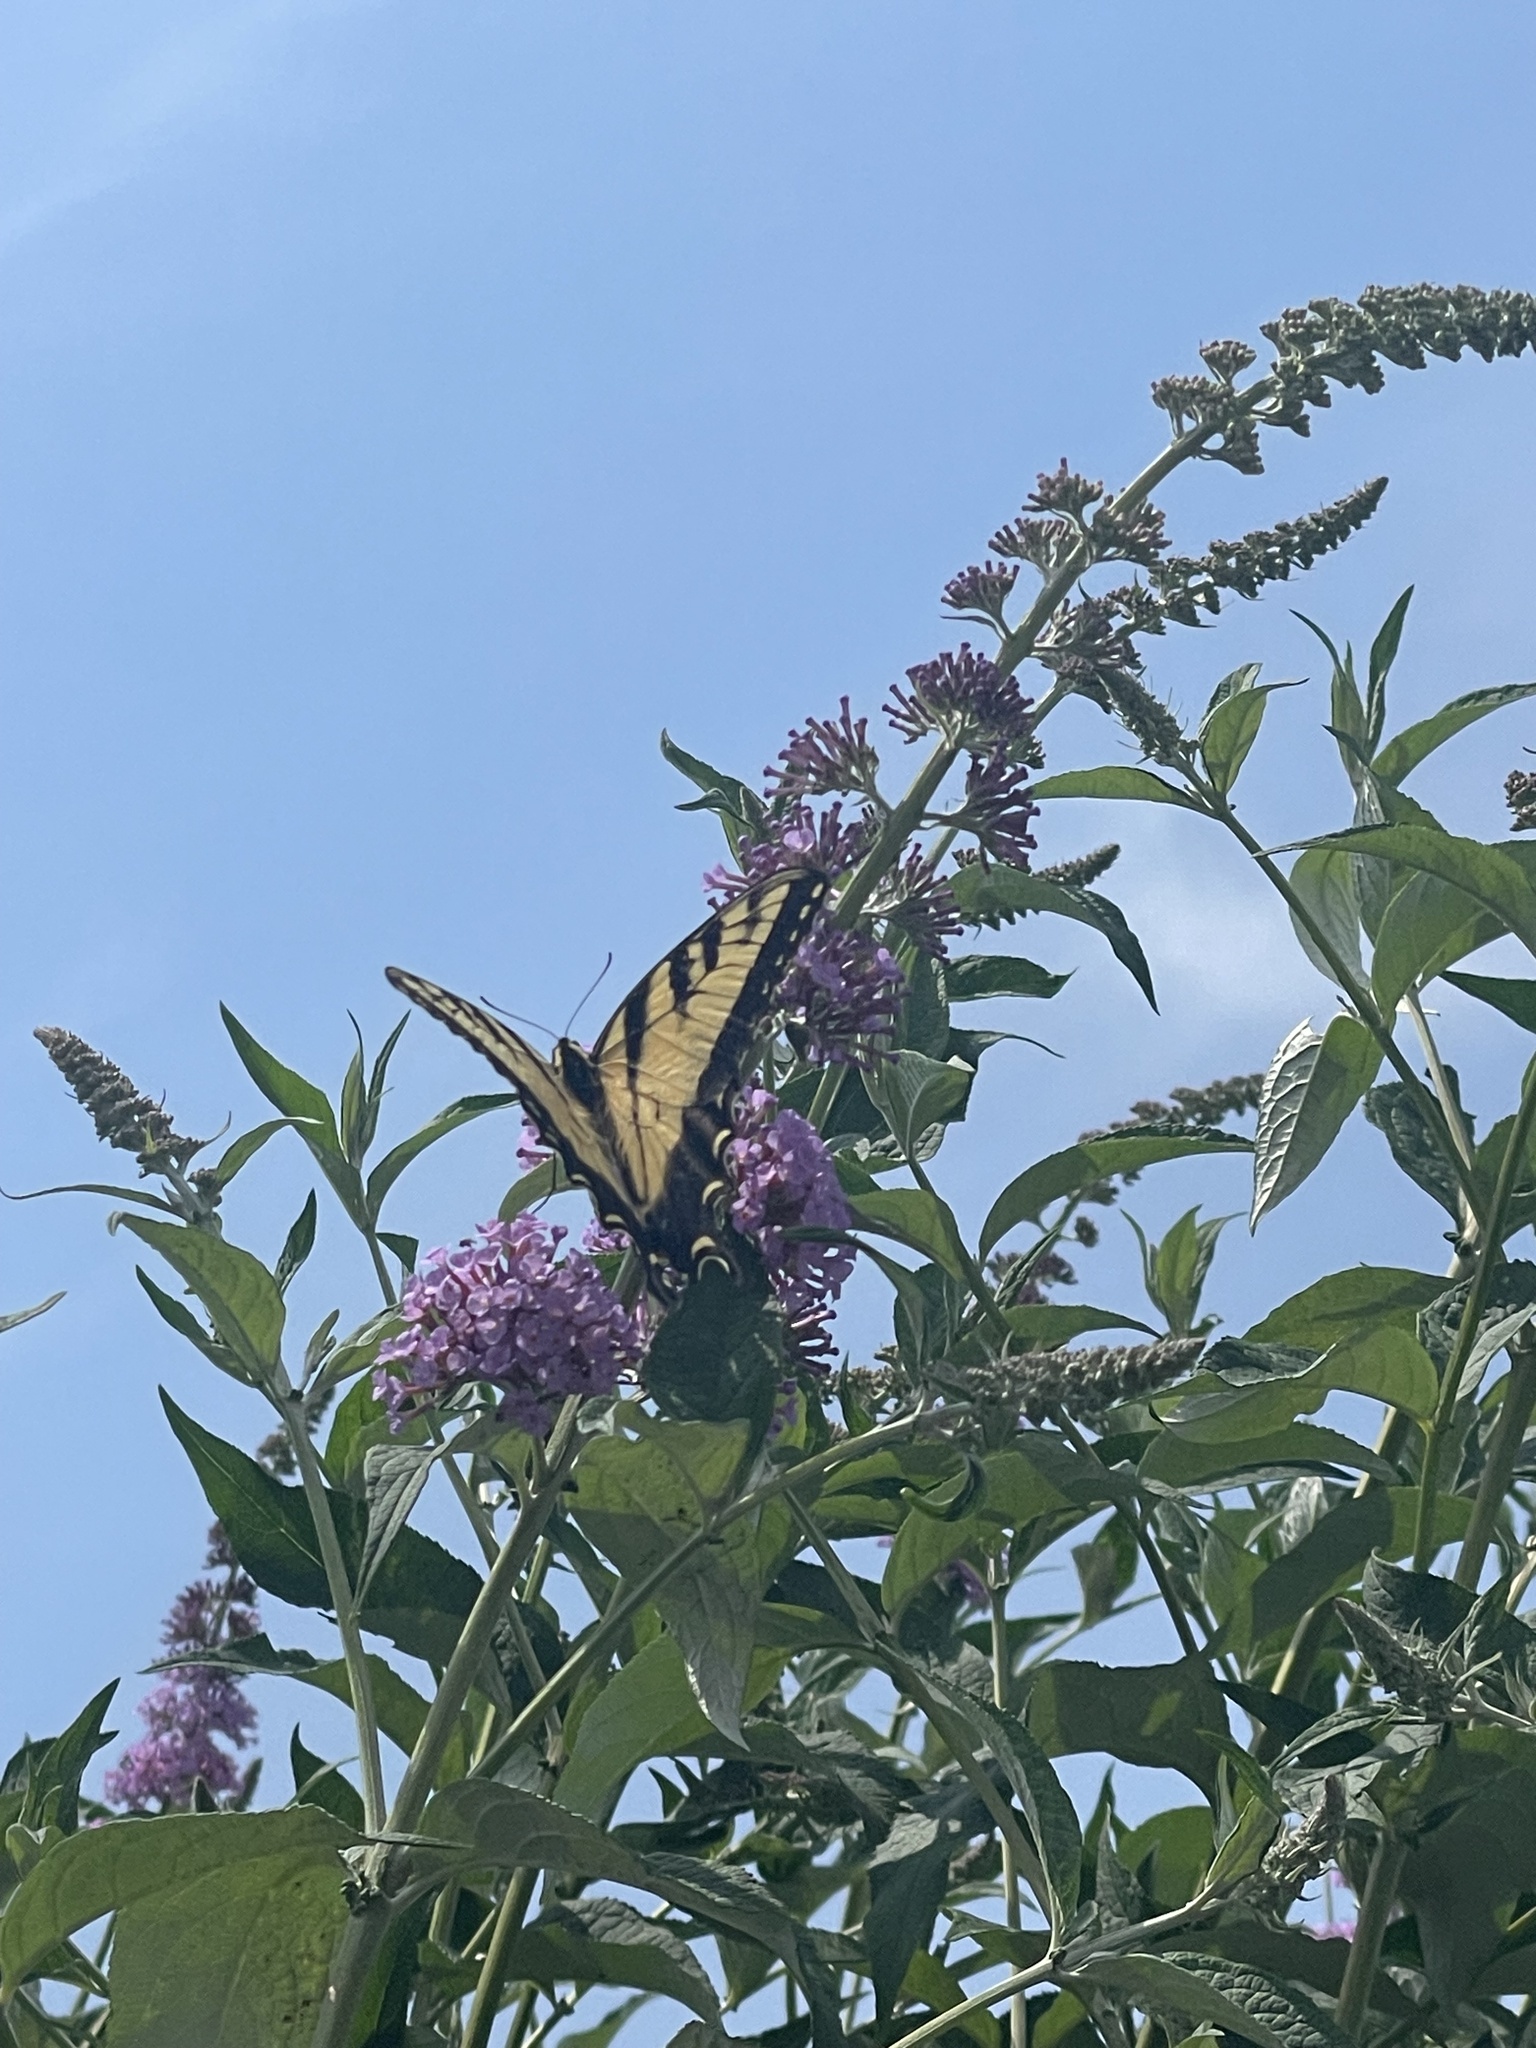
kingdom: Animalia
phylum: Arthropoda
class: Insecta
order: Lepidoptera
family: Papilionidae
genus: Papilio
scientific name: Papilio glaucus
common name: Tiger swallowtail
